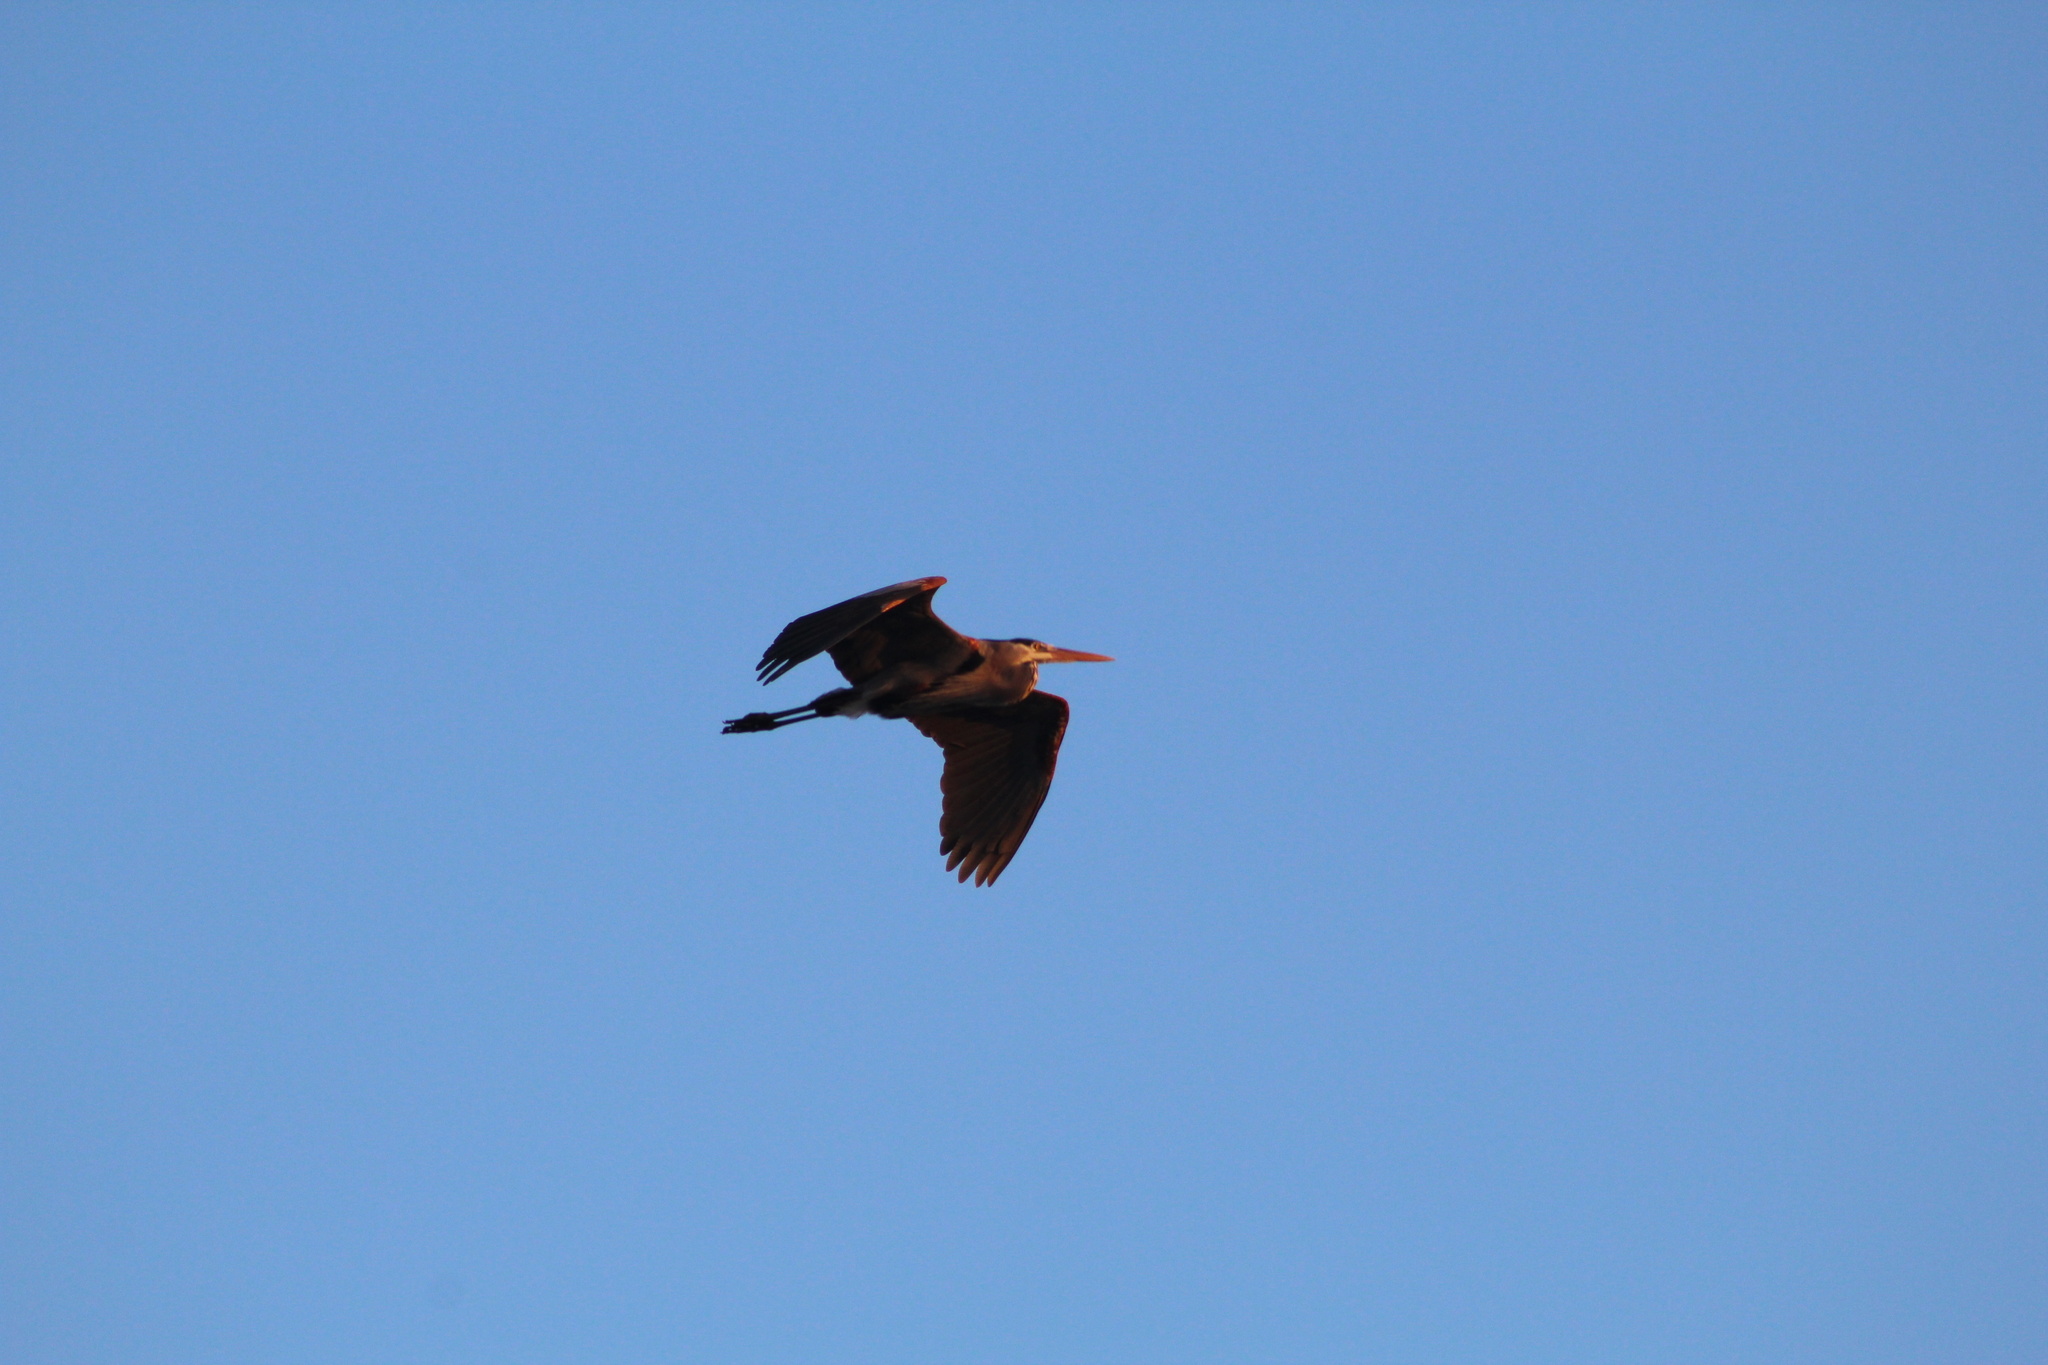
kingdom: Animalia
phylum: Chordata
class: Aves
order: Pelecaniformes
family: Ardeidae
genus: Ardea
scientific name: Ardea herodias
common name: Great blue heron
